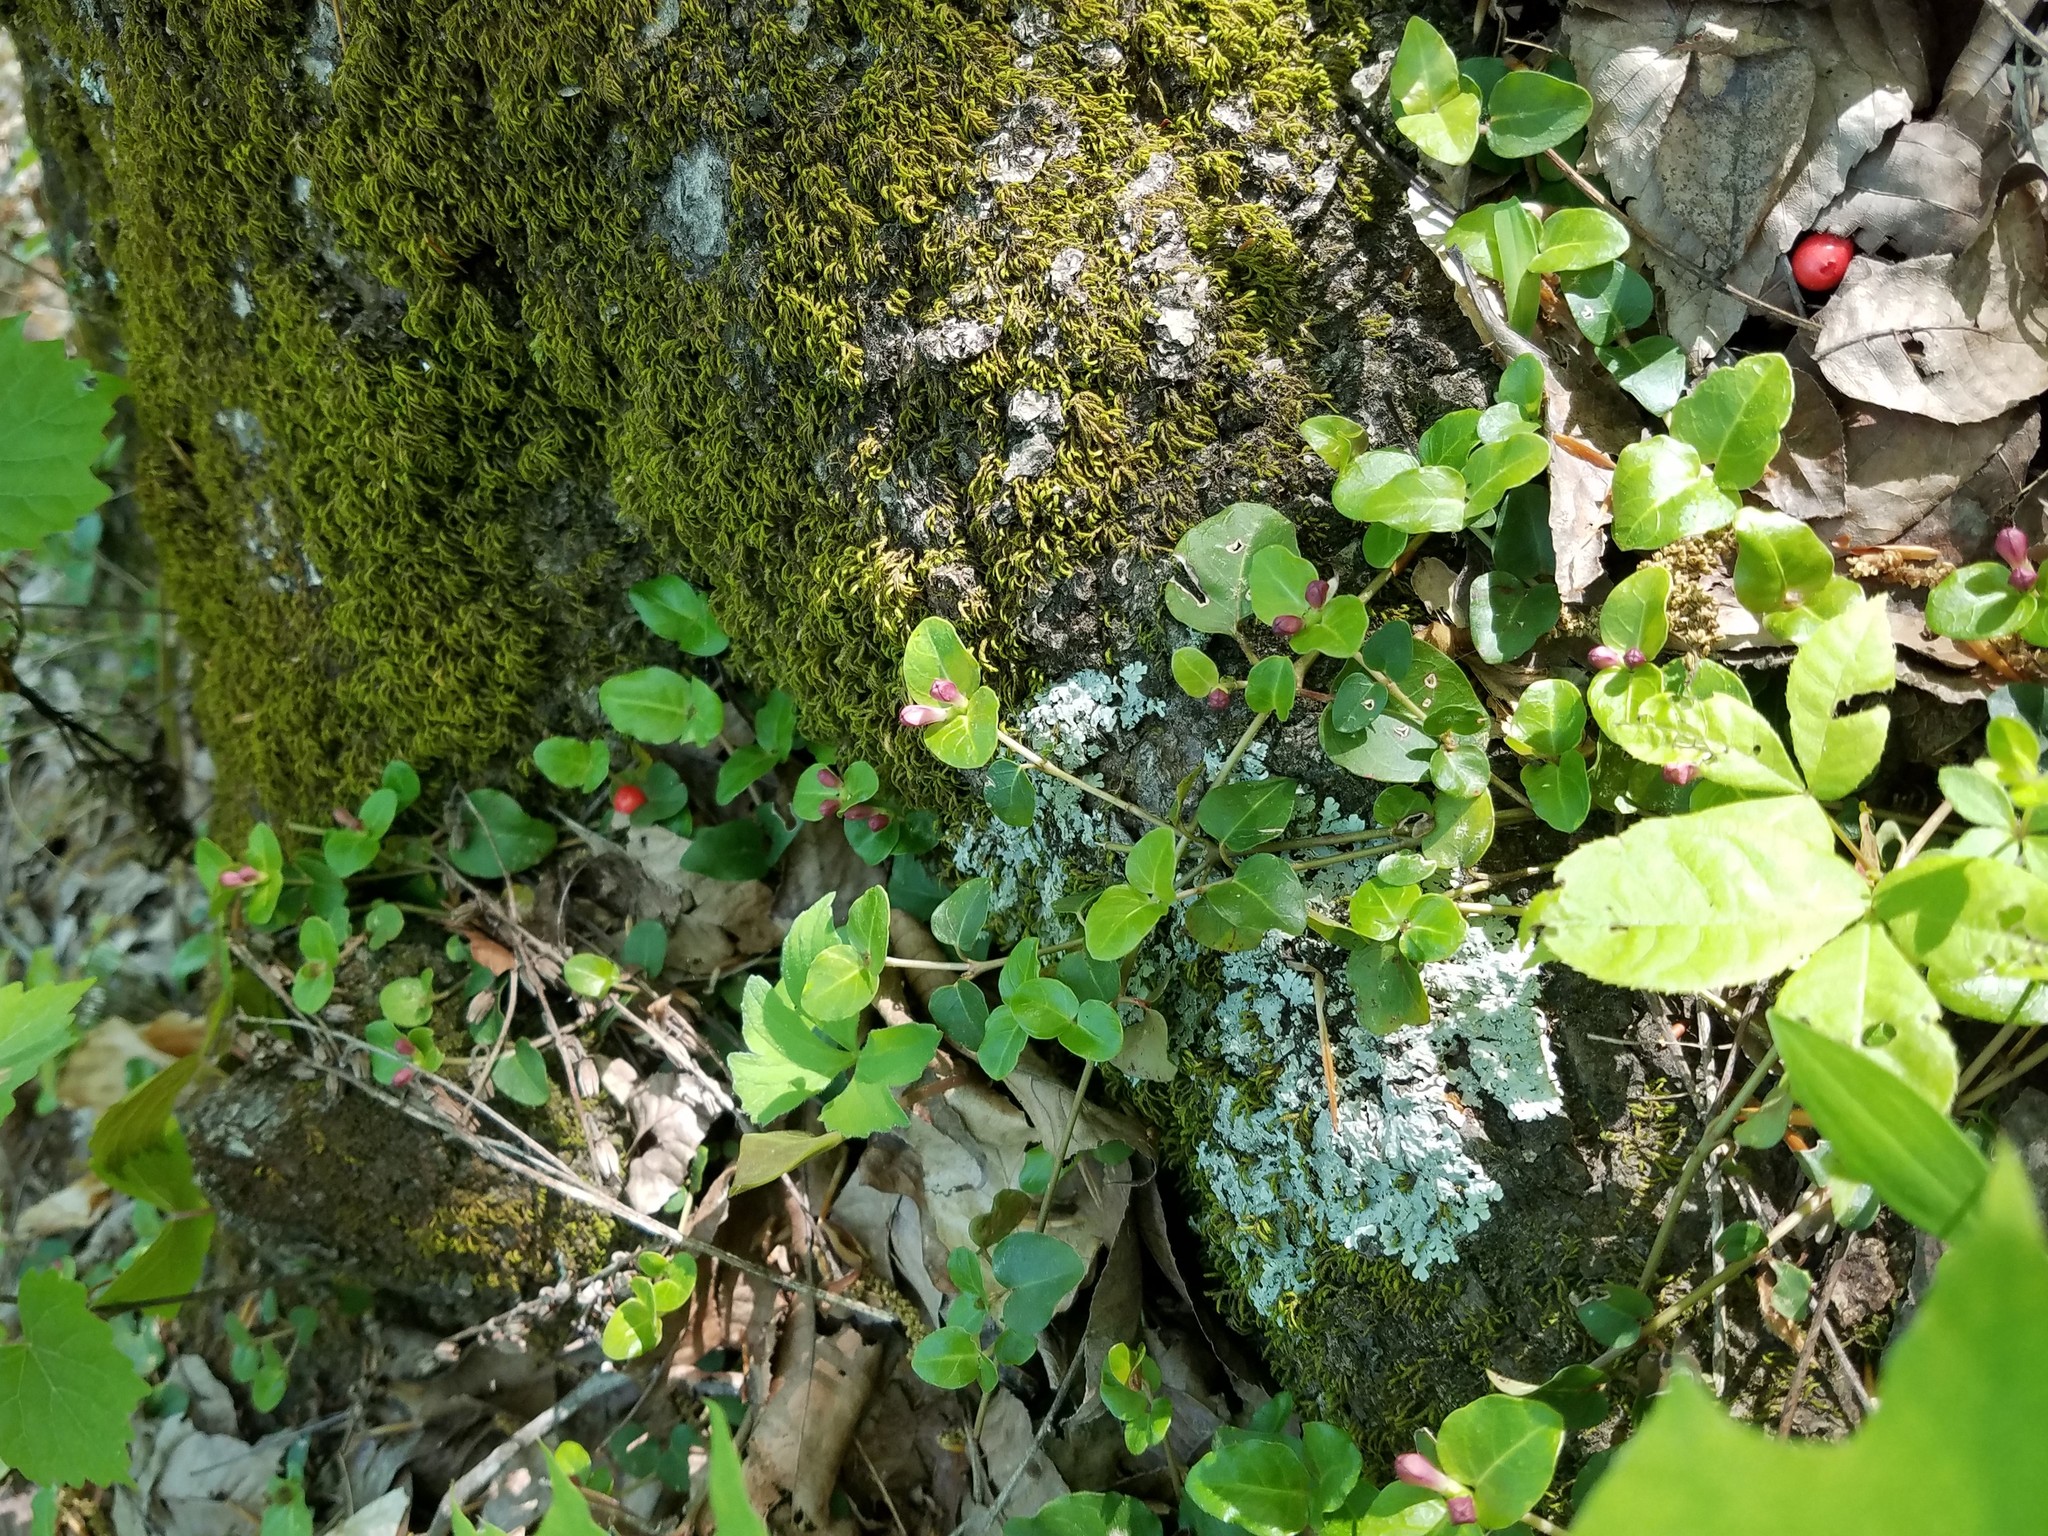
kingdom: Plantae
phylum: Tracheophyta
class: Magnoliopsida
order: Gentianales
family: Rubiaceae
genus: Mitchella
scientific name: Mitchella repens
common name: Partridge-berry
